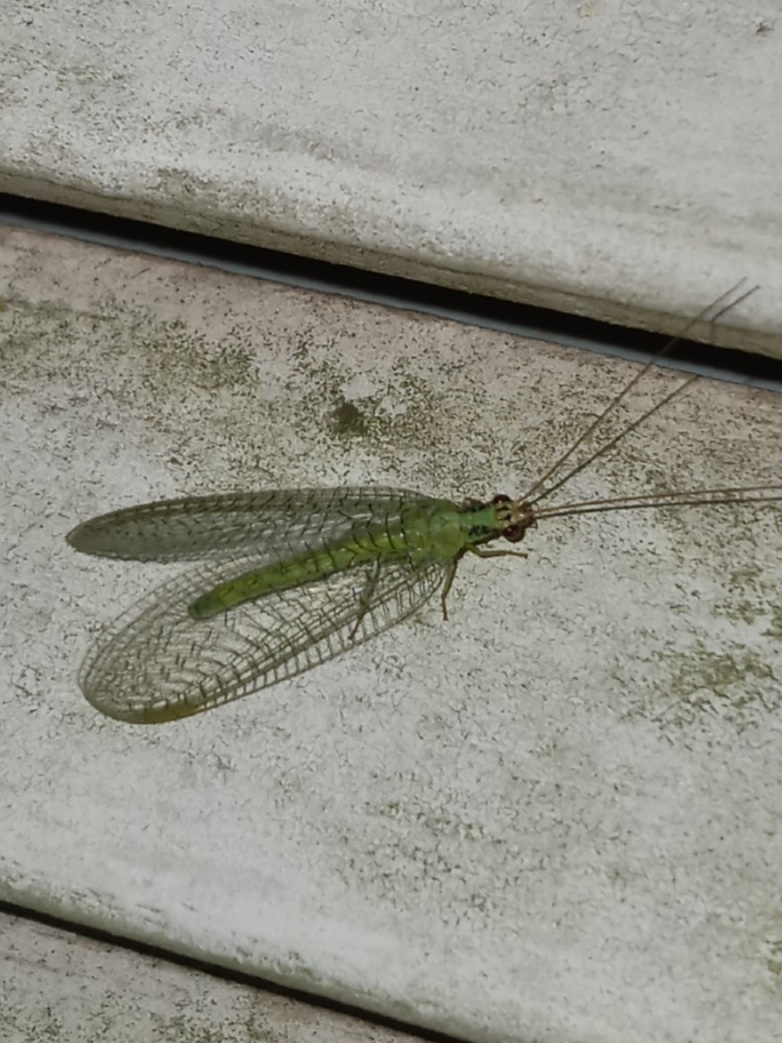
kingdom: Animalia
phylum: Arthropoda
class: Insecta
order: Neuroptera
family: Chrysopidae
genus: Chrysopa
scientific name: Chrysopa incompleta
